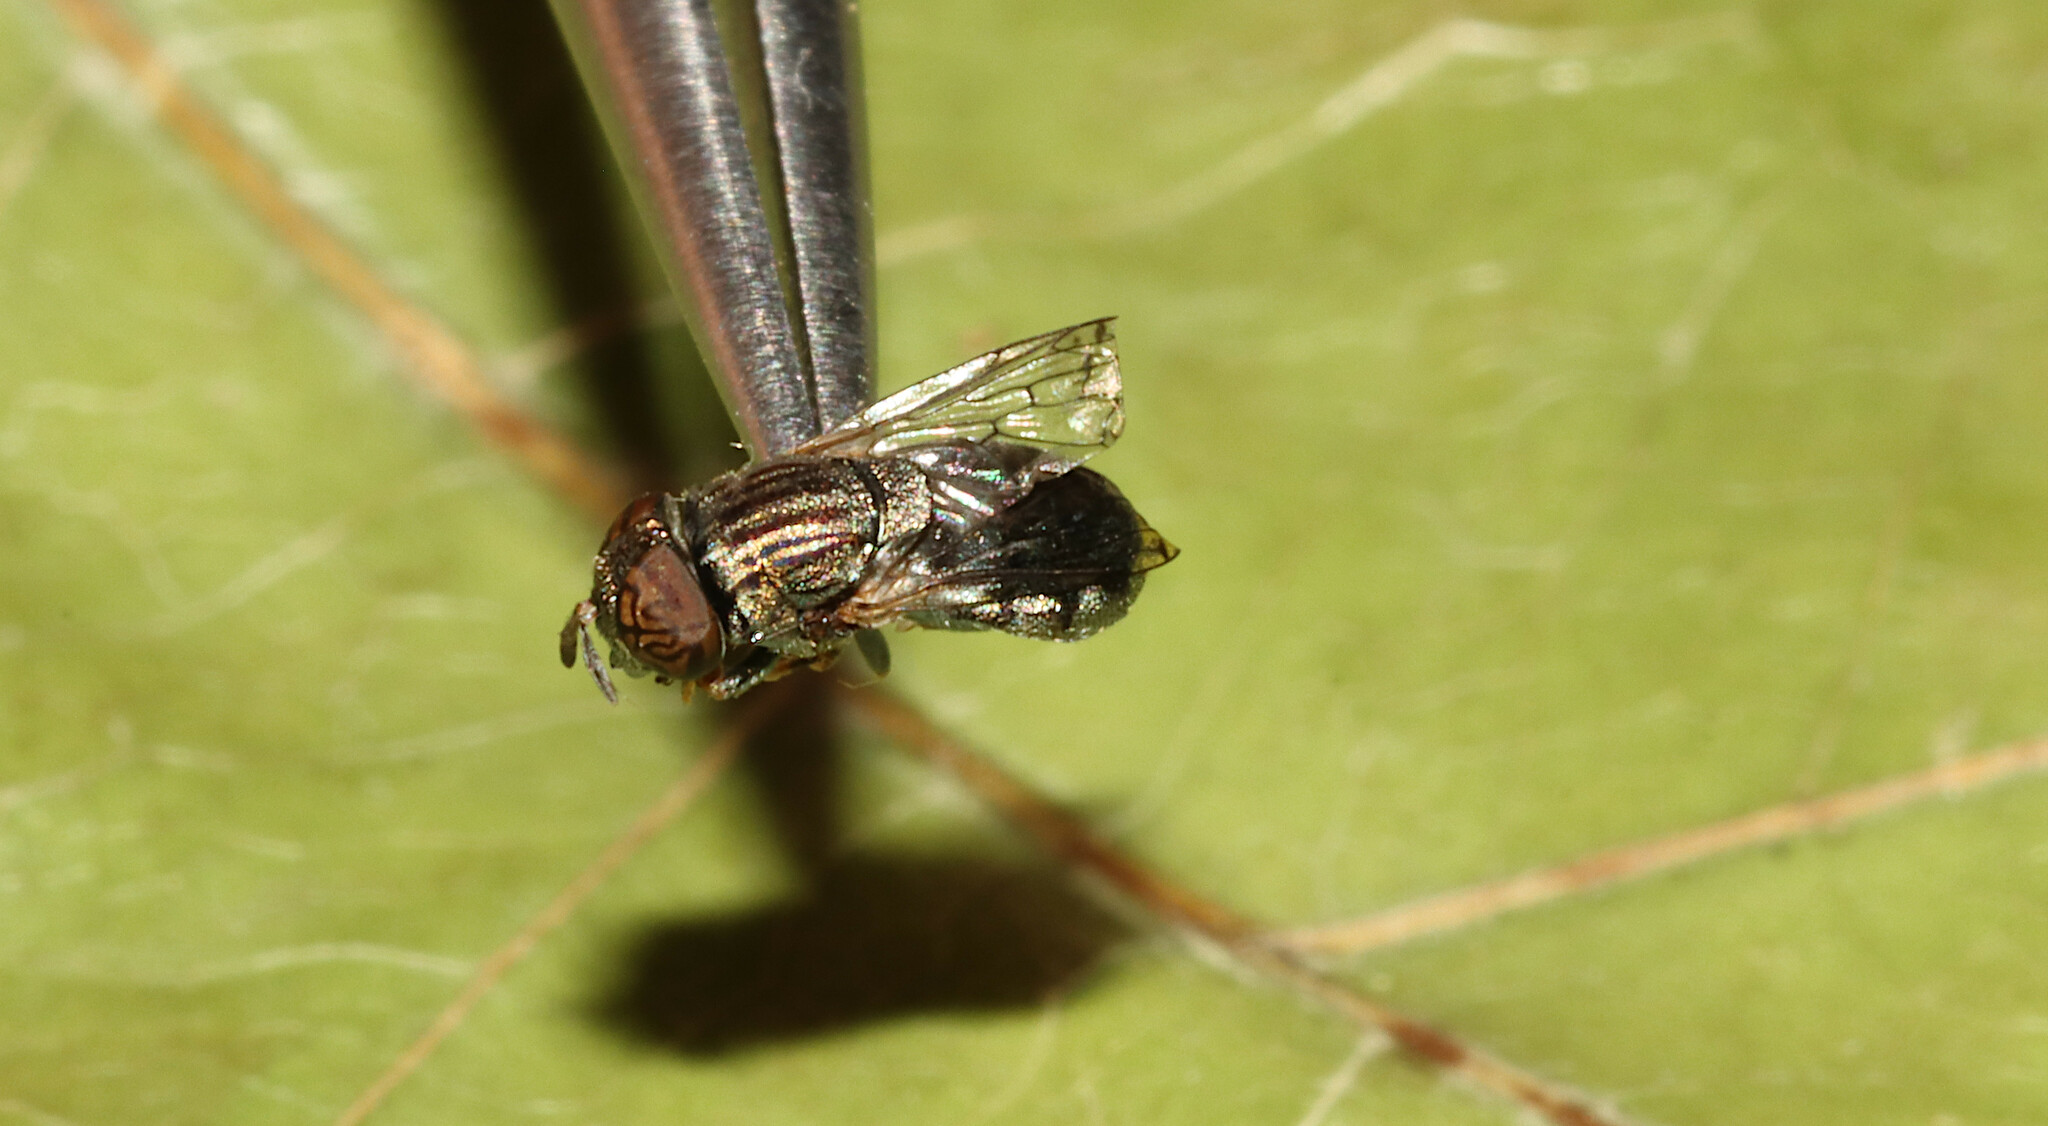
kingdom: Animalia
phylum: Arthropoda
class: Insecta
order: Diptera
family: Syrphidae
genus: Orthonevra
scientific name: Orthonevra nitida
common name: Wavy mucksucker
